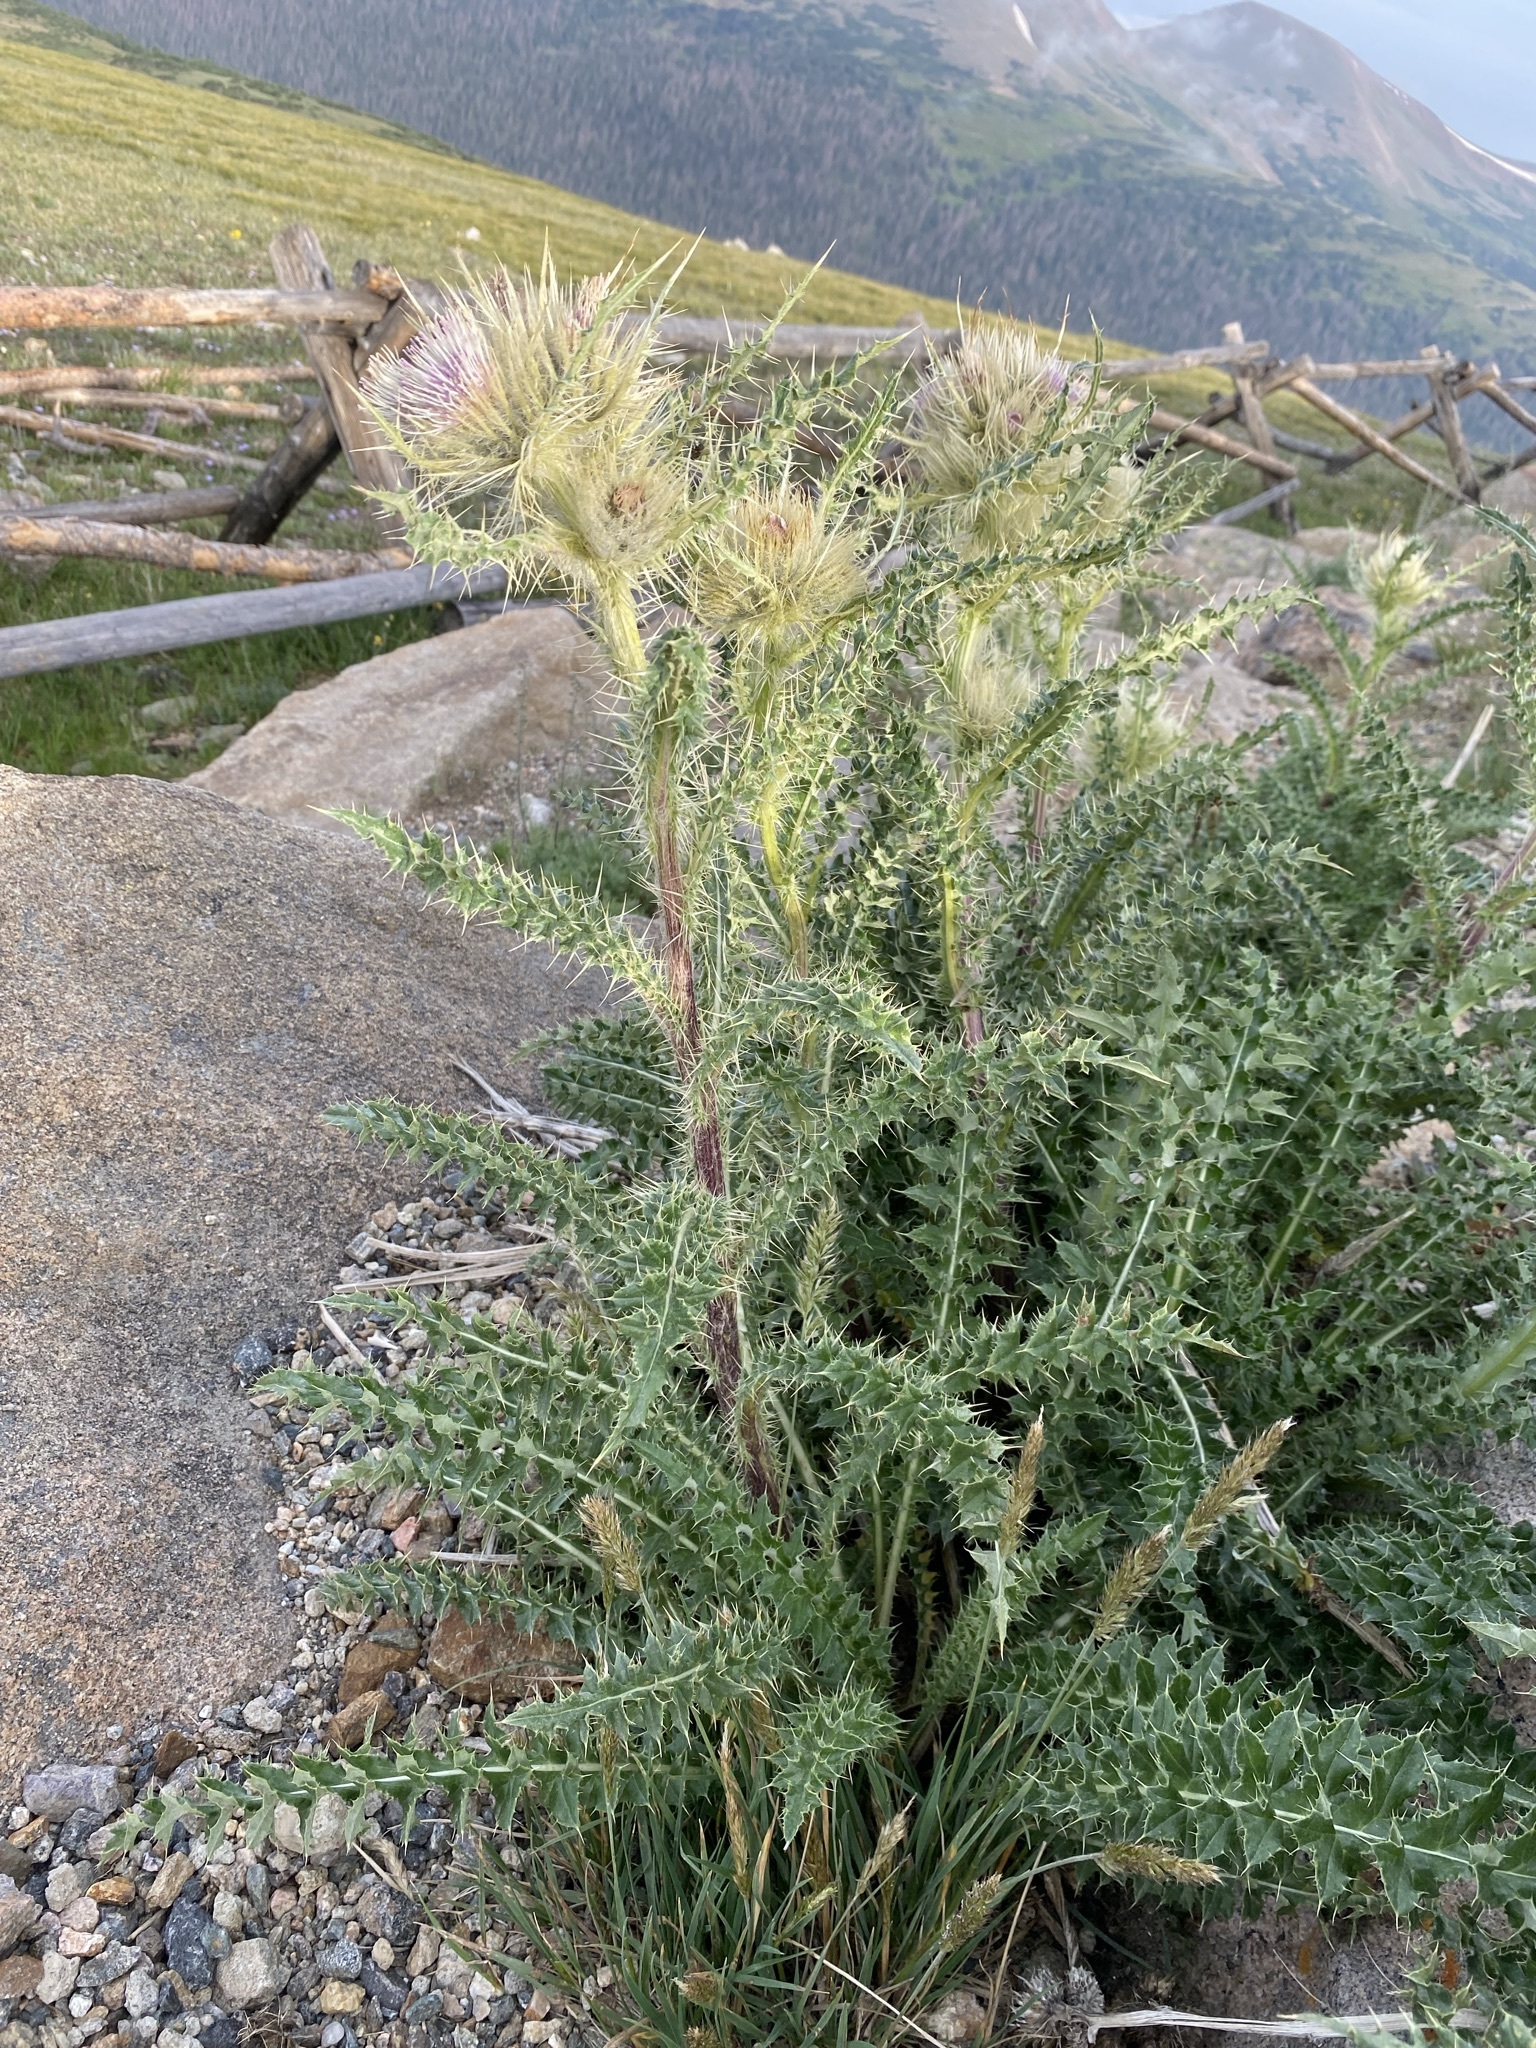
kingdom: Plantae
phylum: Tracheophyta
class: Magnoliopsida
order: Asterales
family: Asteraceae
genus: Cirsium
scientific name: Cirsium scopulorum
